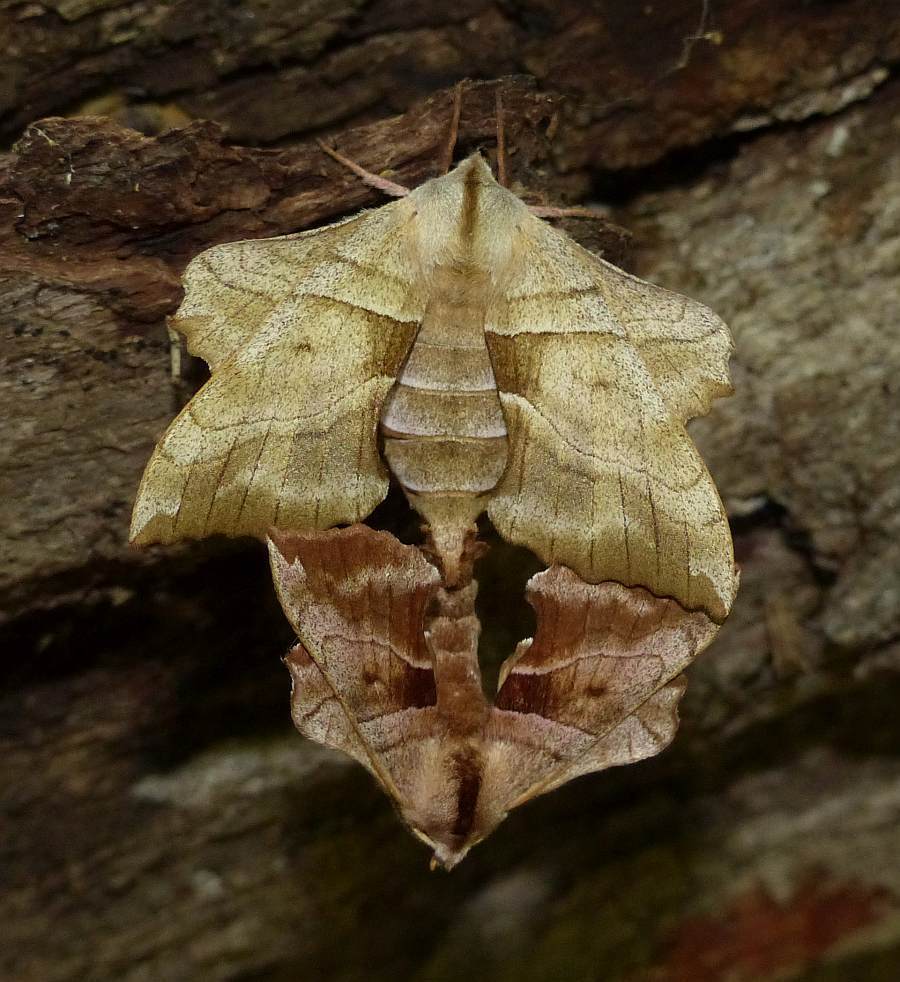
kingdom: Animalia
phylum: Arthropoda
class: Insecta
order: Lepidoptera
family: Sphingidae
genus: Amorpha
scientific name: Amorpha juglandis
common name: Walnut sphinx
